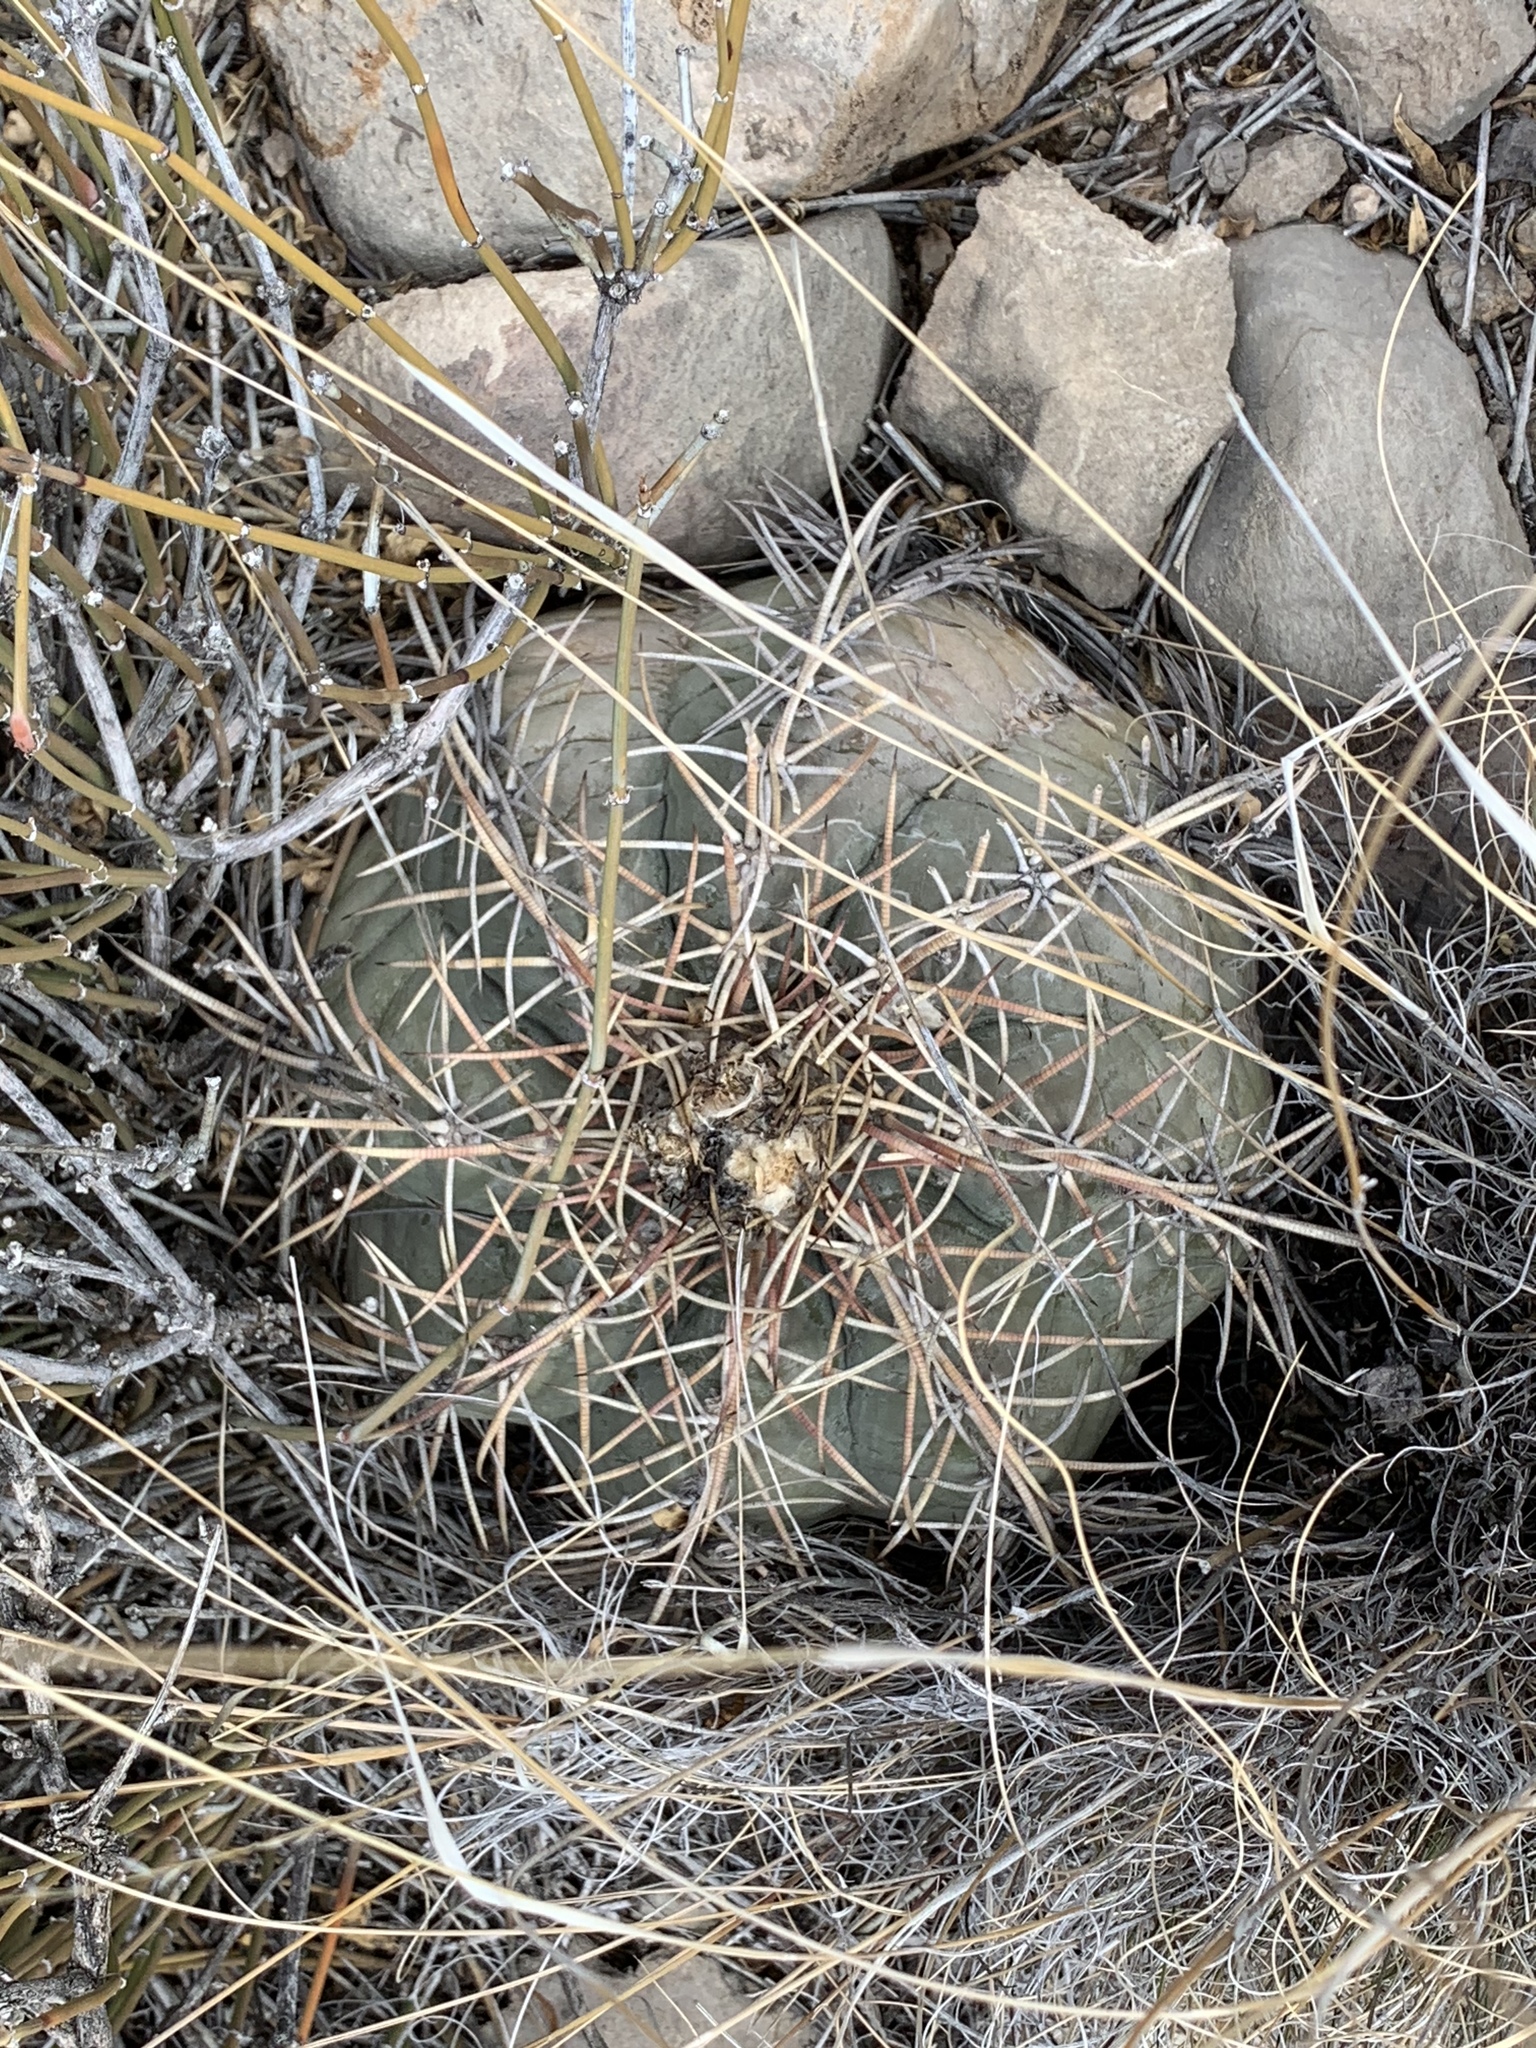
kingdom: Plantae
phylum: Tracheophyta
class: Magnoliopsida
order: Caryophyllales
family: Cactaceae
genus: Echinocactus
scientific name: Echinocactus horizonthalonius
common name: Devilshead
